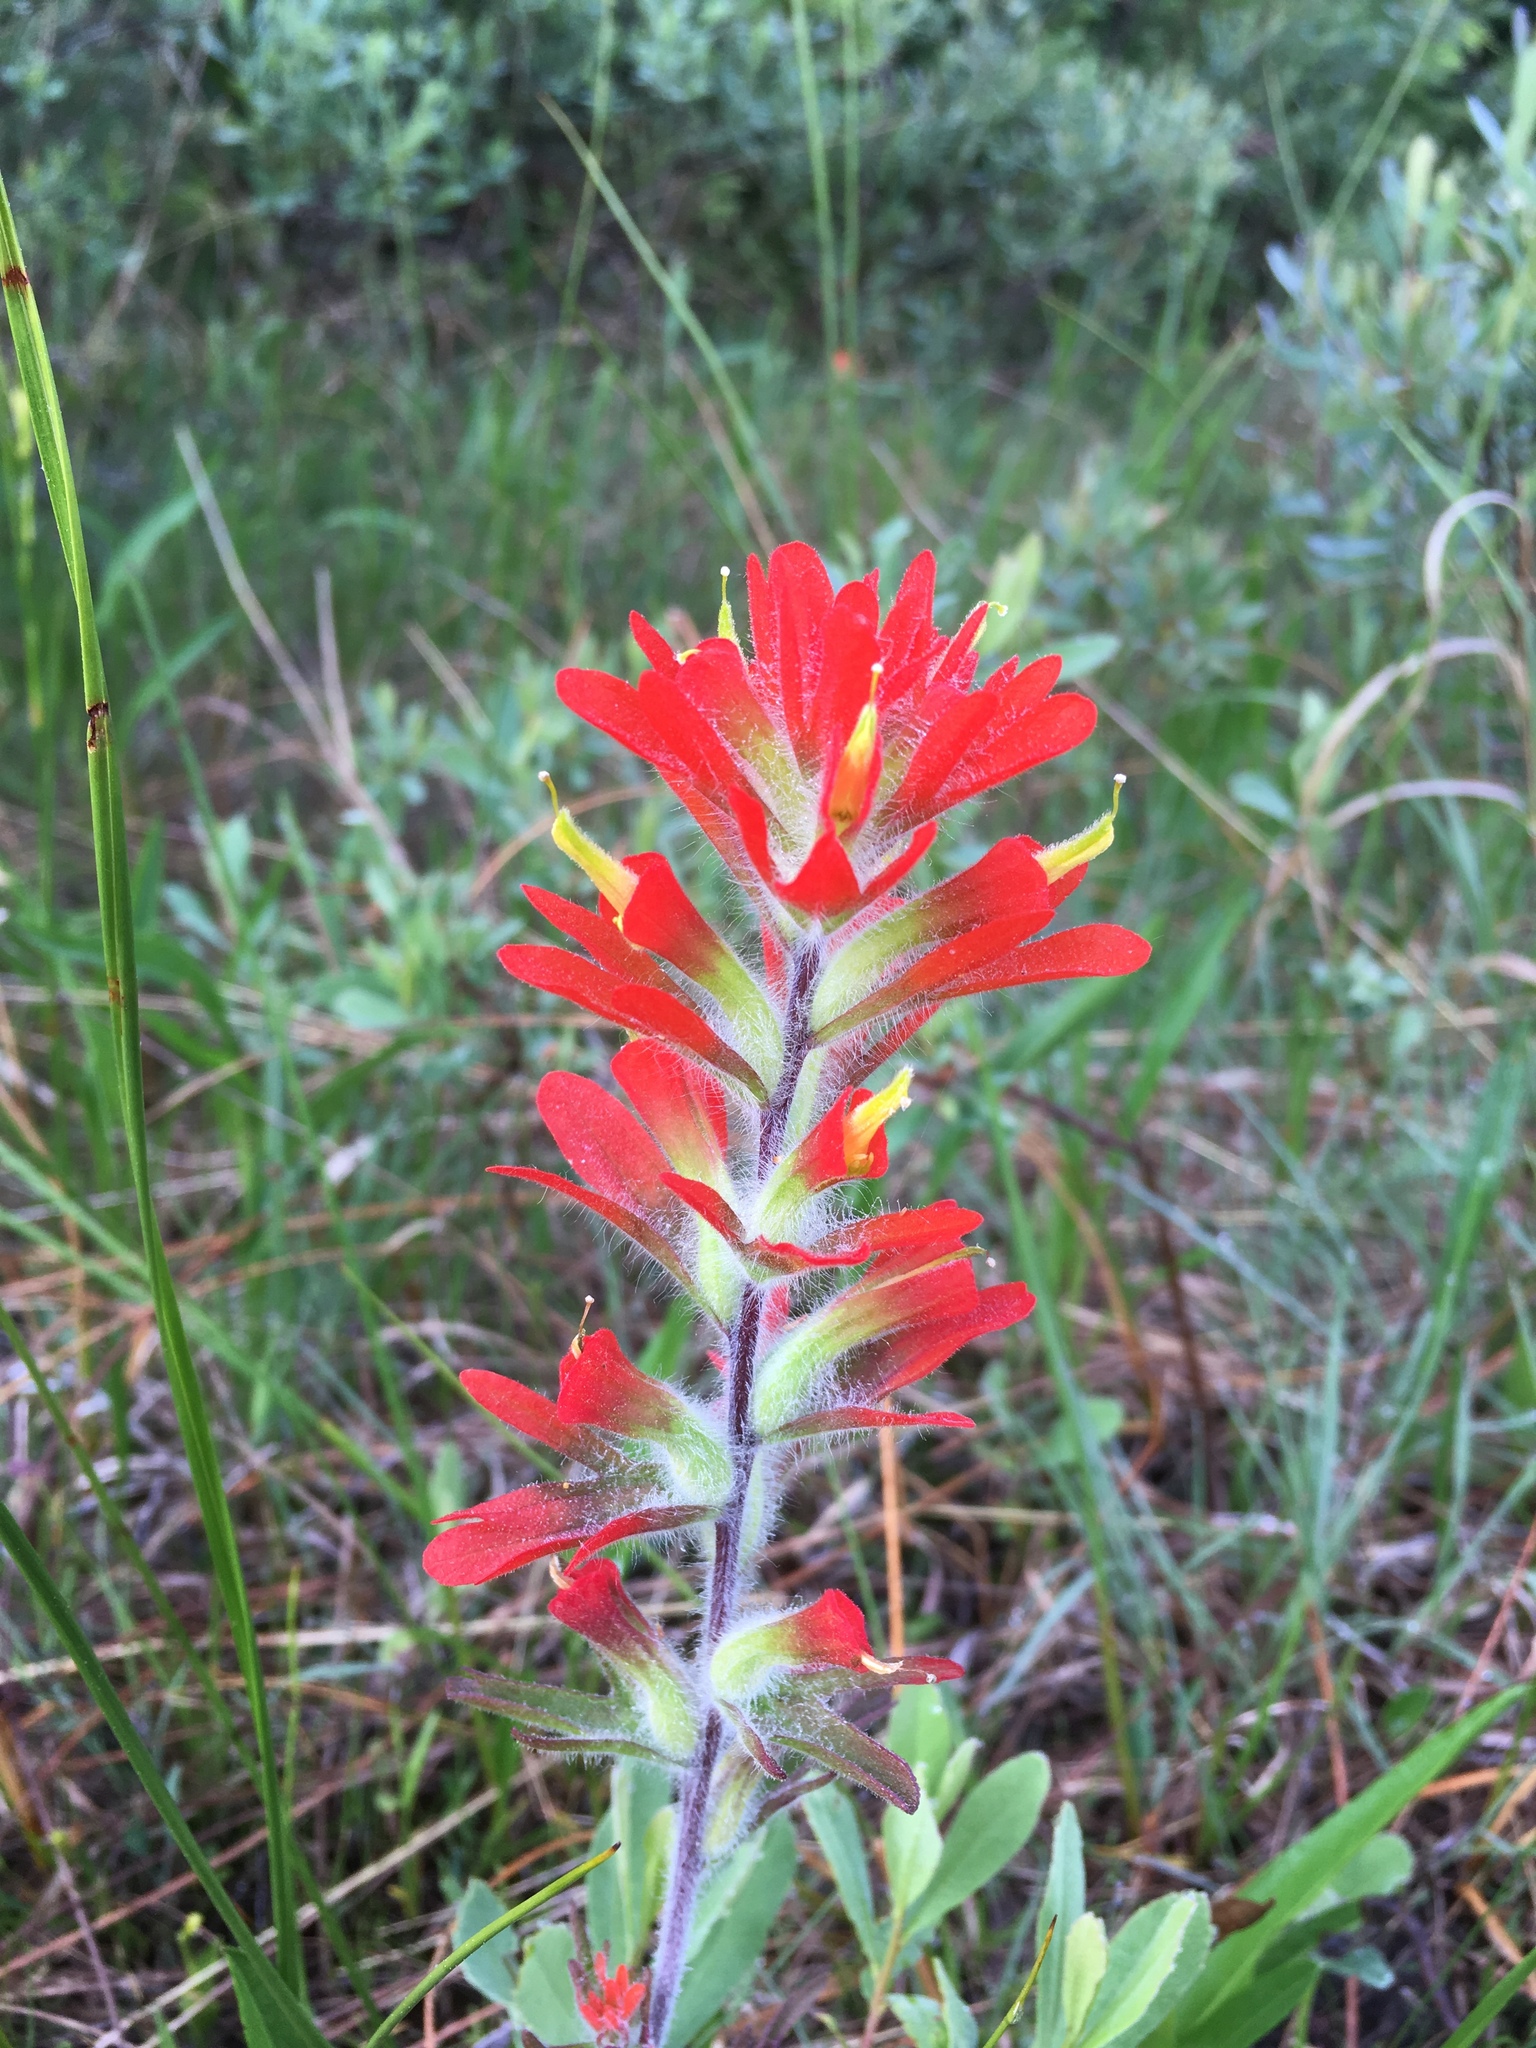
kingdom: Plantae
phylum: Tracheophyta
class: Magnoliopsida
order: Lamiales
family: Orobanchaceae
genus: Castilleja
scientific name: Castilleja coccinea
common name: Scarlet paintbrush
